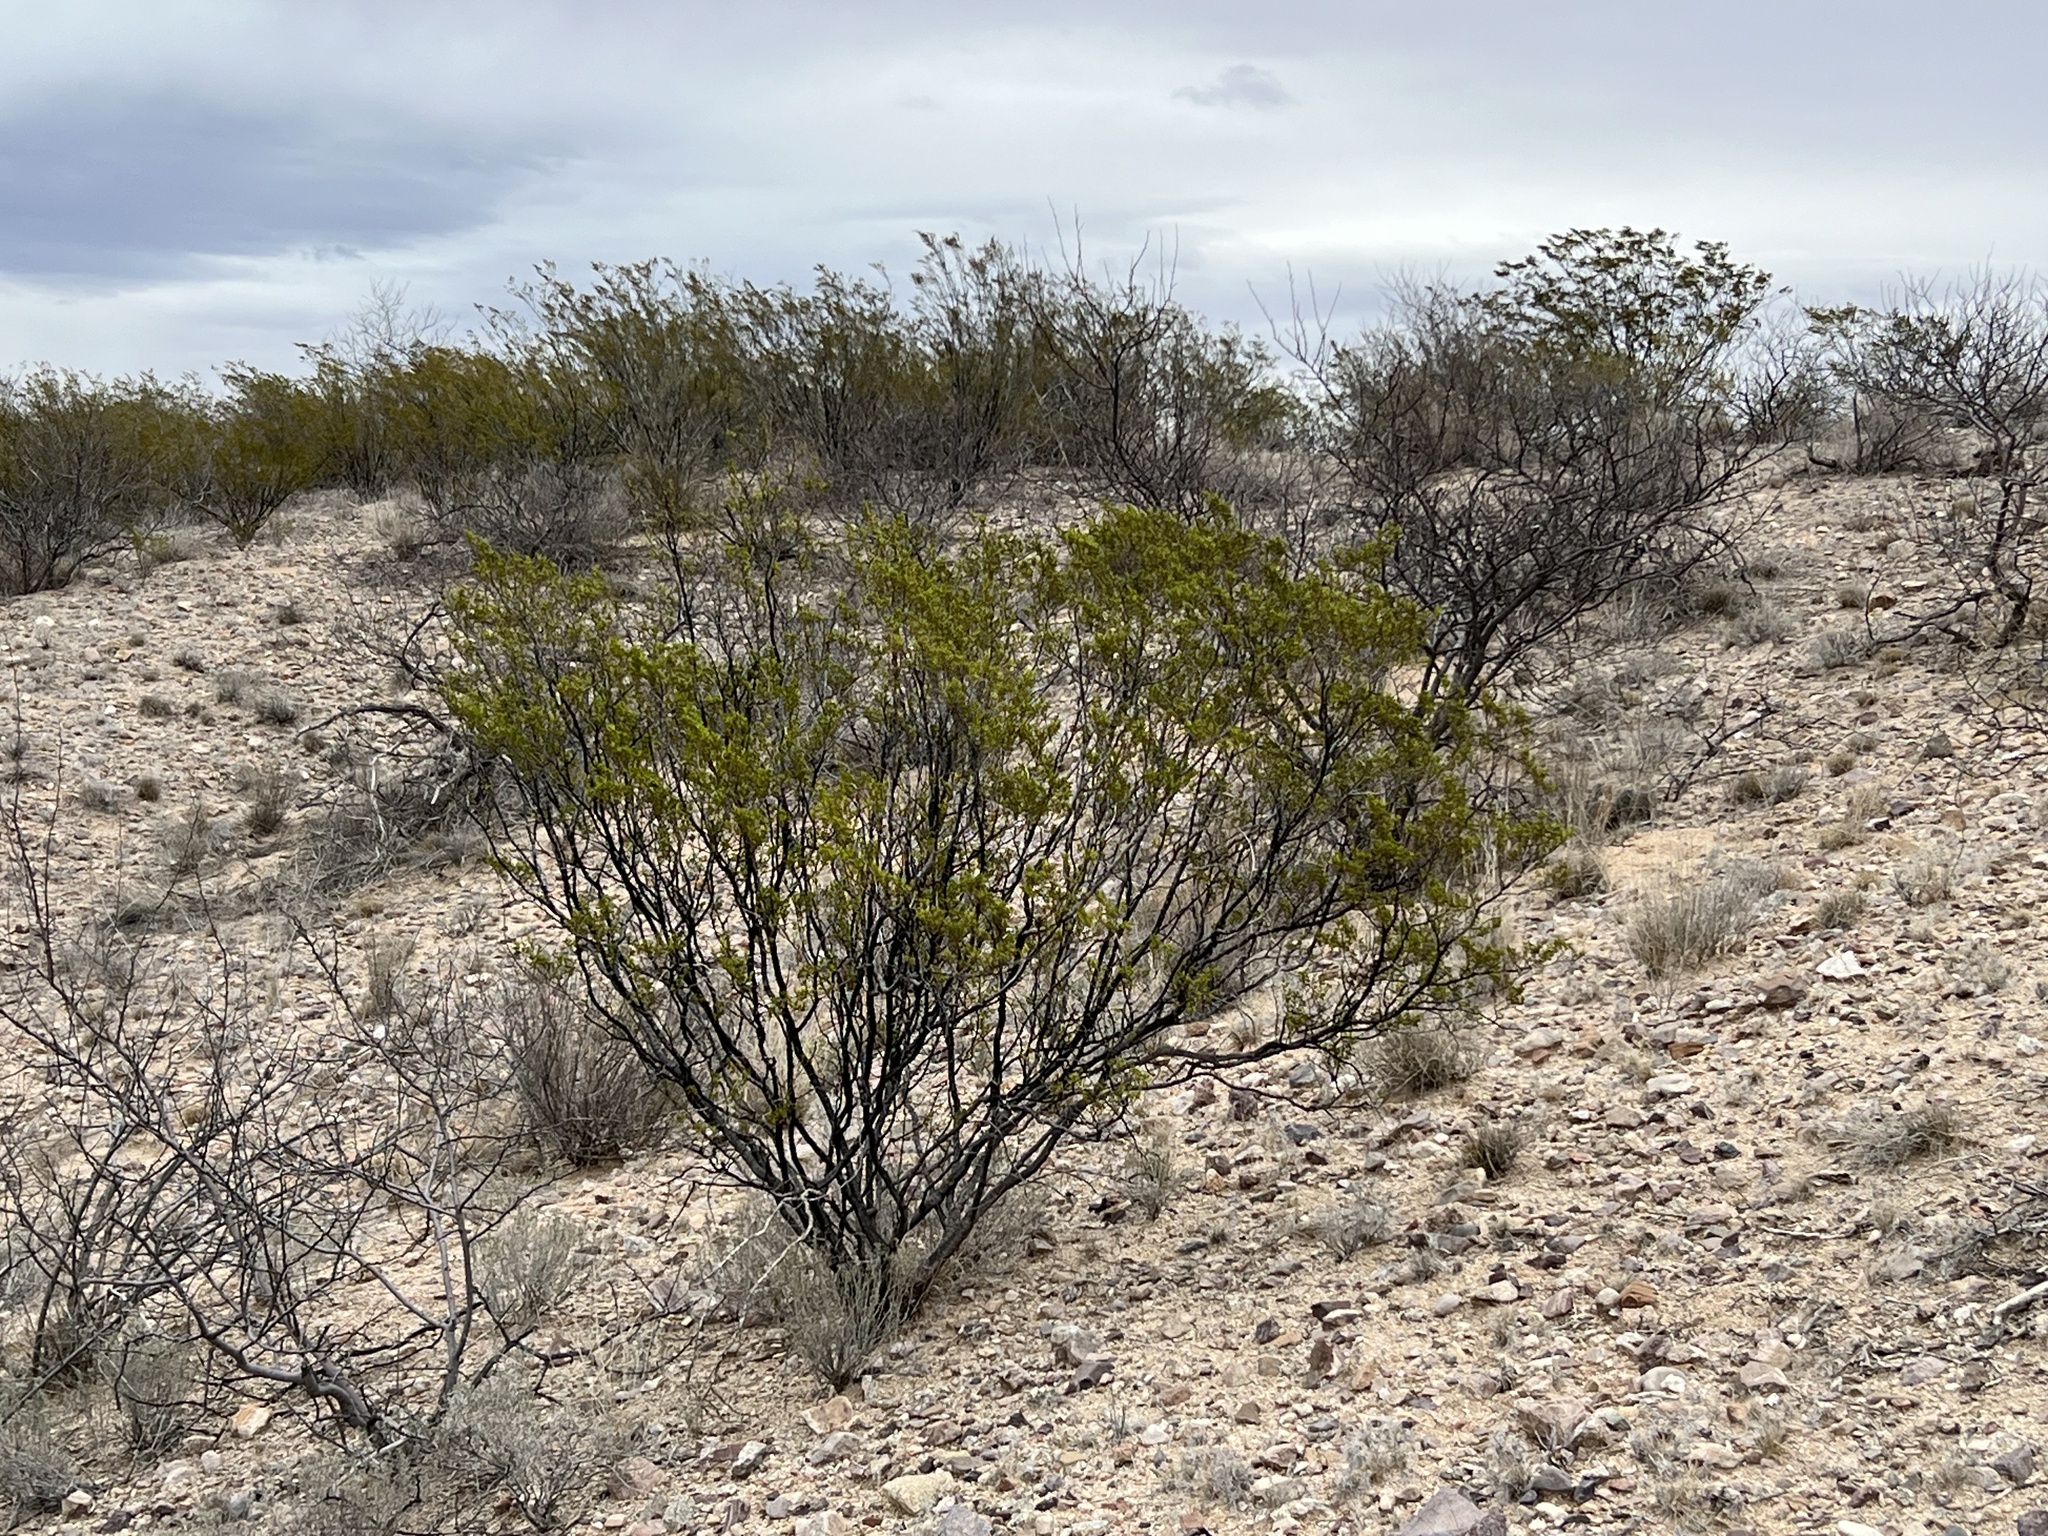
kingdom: Plantae
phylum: Tracheophyta
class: Magnoliopsida
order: Zygophyllales
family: Zygophyllaceae
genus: Larrea
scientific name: Larrea tridentata
